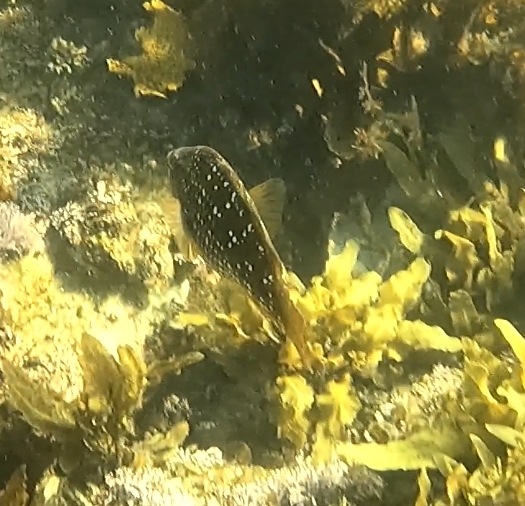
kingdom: Animalia
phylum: Chordata
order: Perciformes
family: Labridae
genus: Notolabrus
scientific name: Notolabrus gymnogenis
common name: Crimson banded wrasse
